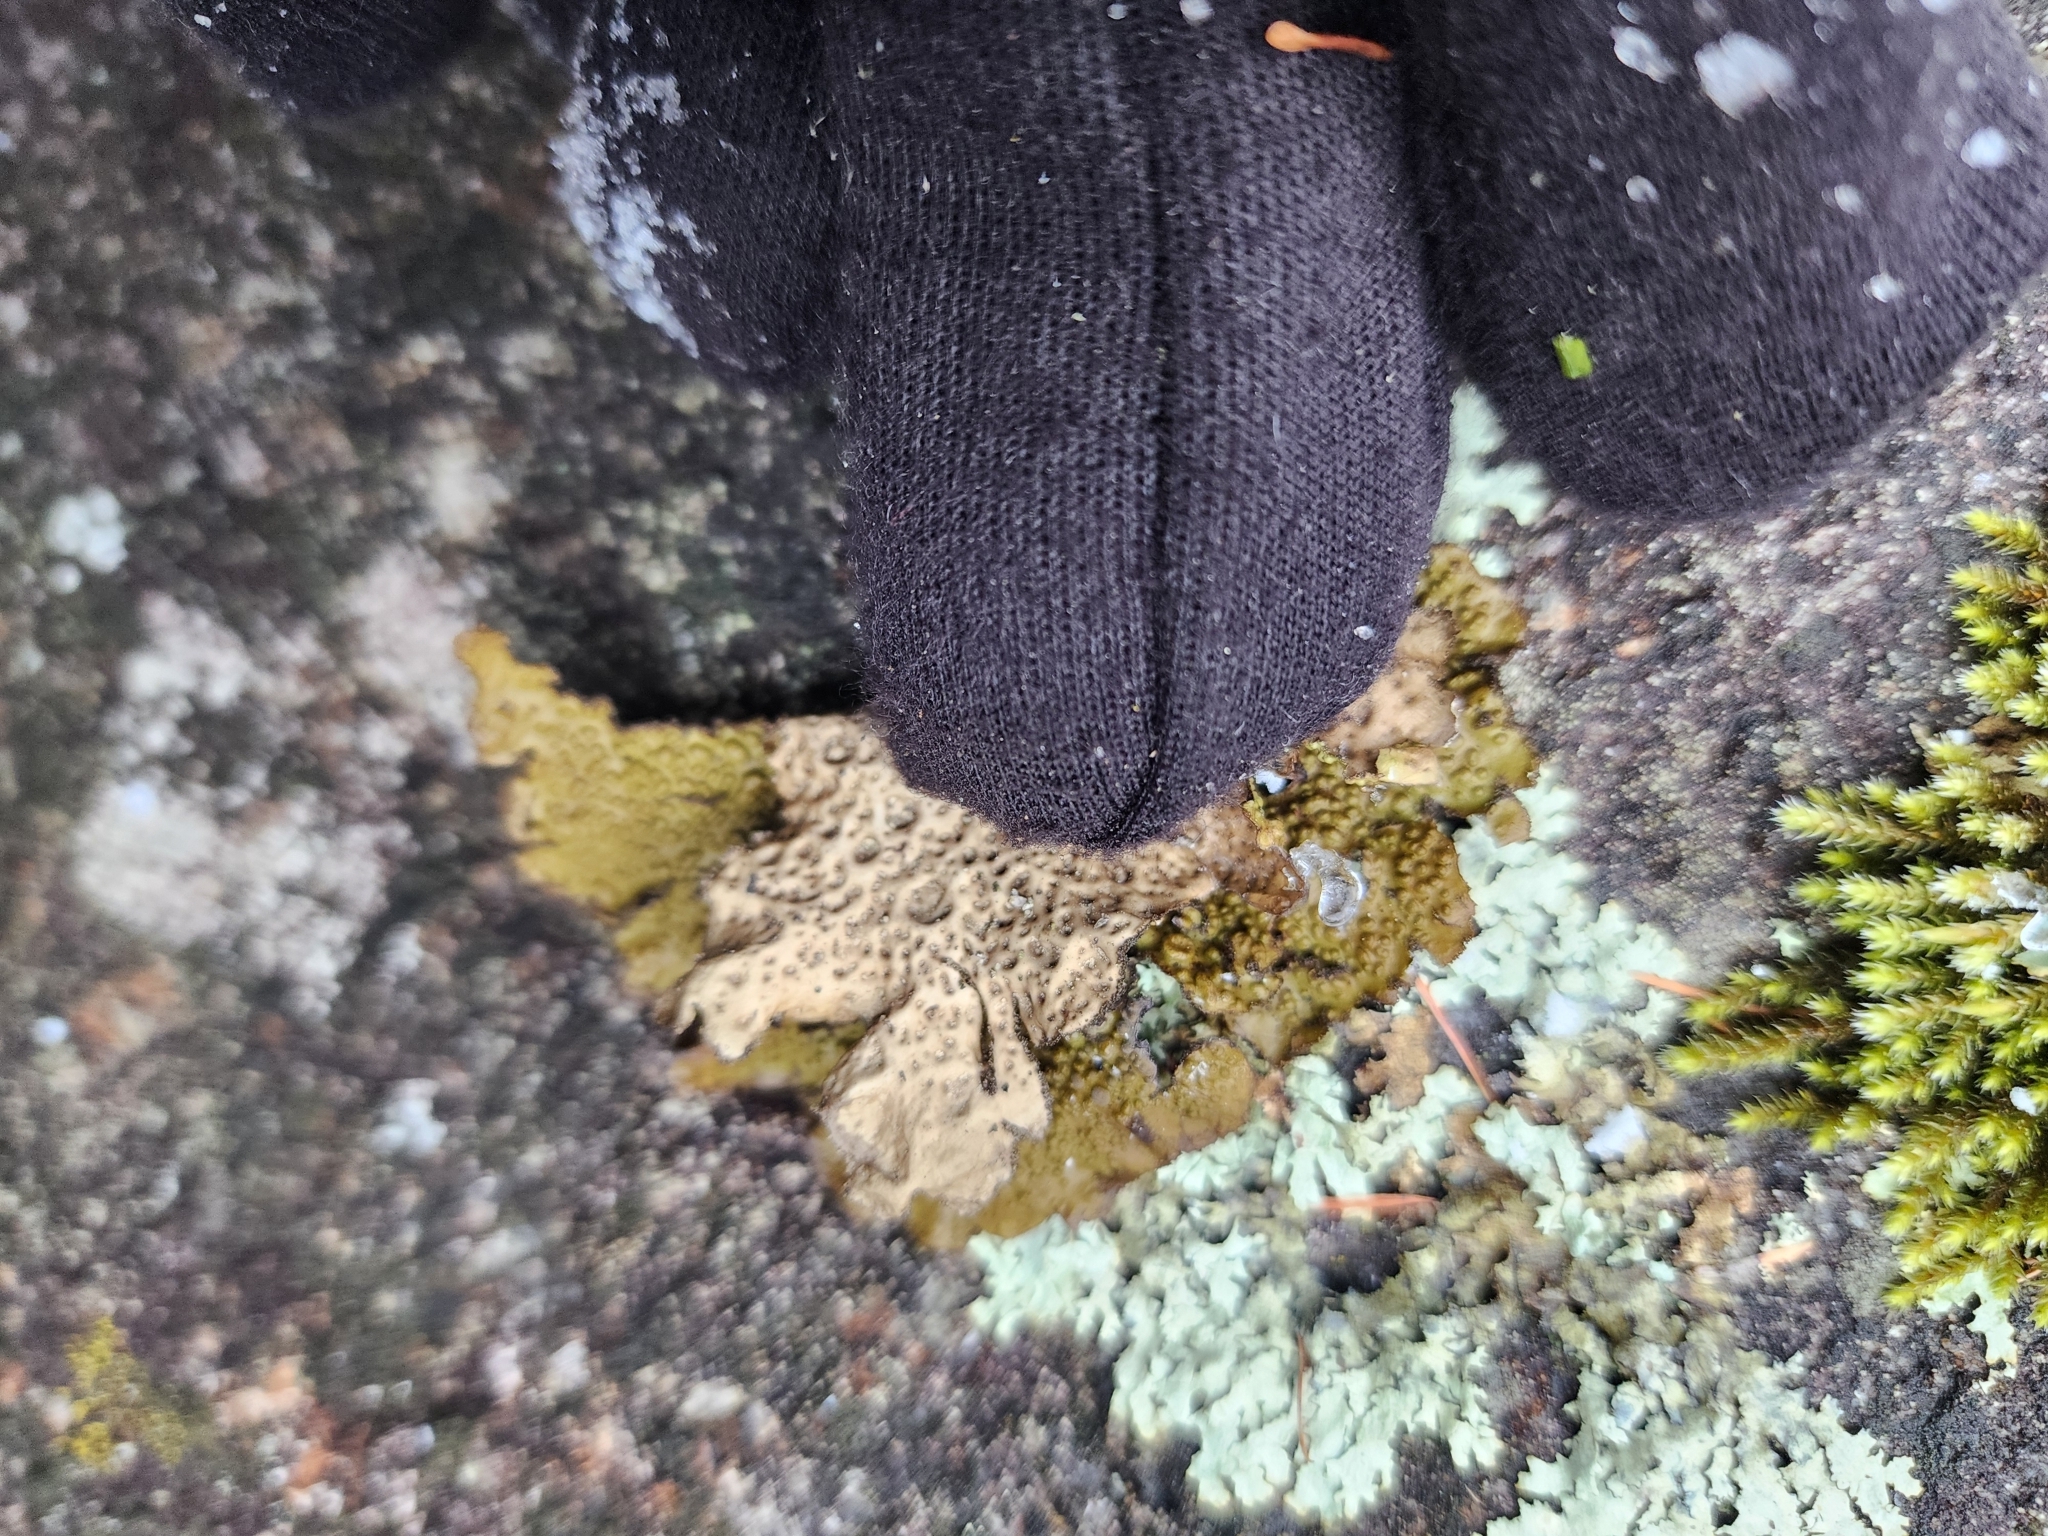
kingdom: Fungi
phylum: Ascomycota
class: Lecanoromycetes
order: Umbilicariales
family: Umbilicariaceae
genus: Lasallia
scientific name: Lasallia papulosa
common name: Common toadskin lichen
